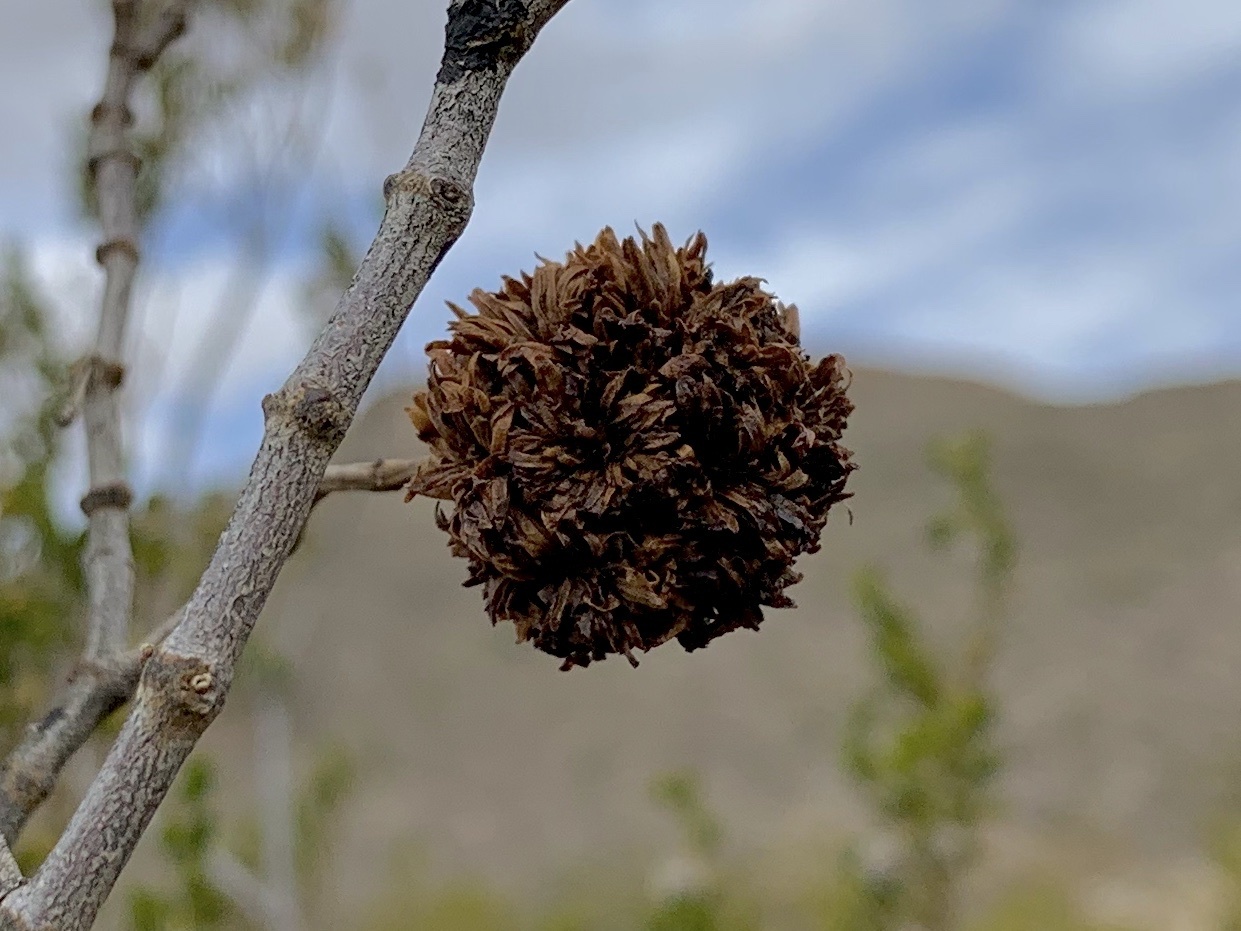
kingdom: Animalia
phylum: Arthropoda
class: Insecta
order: Diptera
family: Cecidomyiidae
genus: Asphondylia
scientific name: Asphondylia auripila
